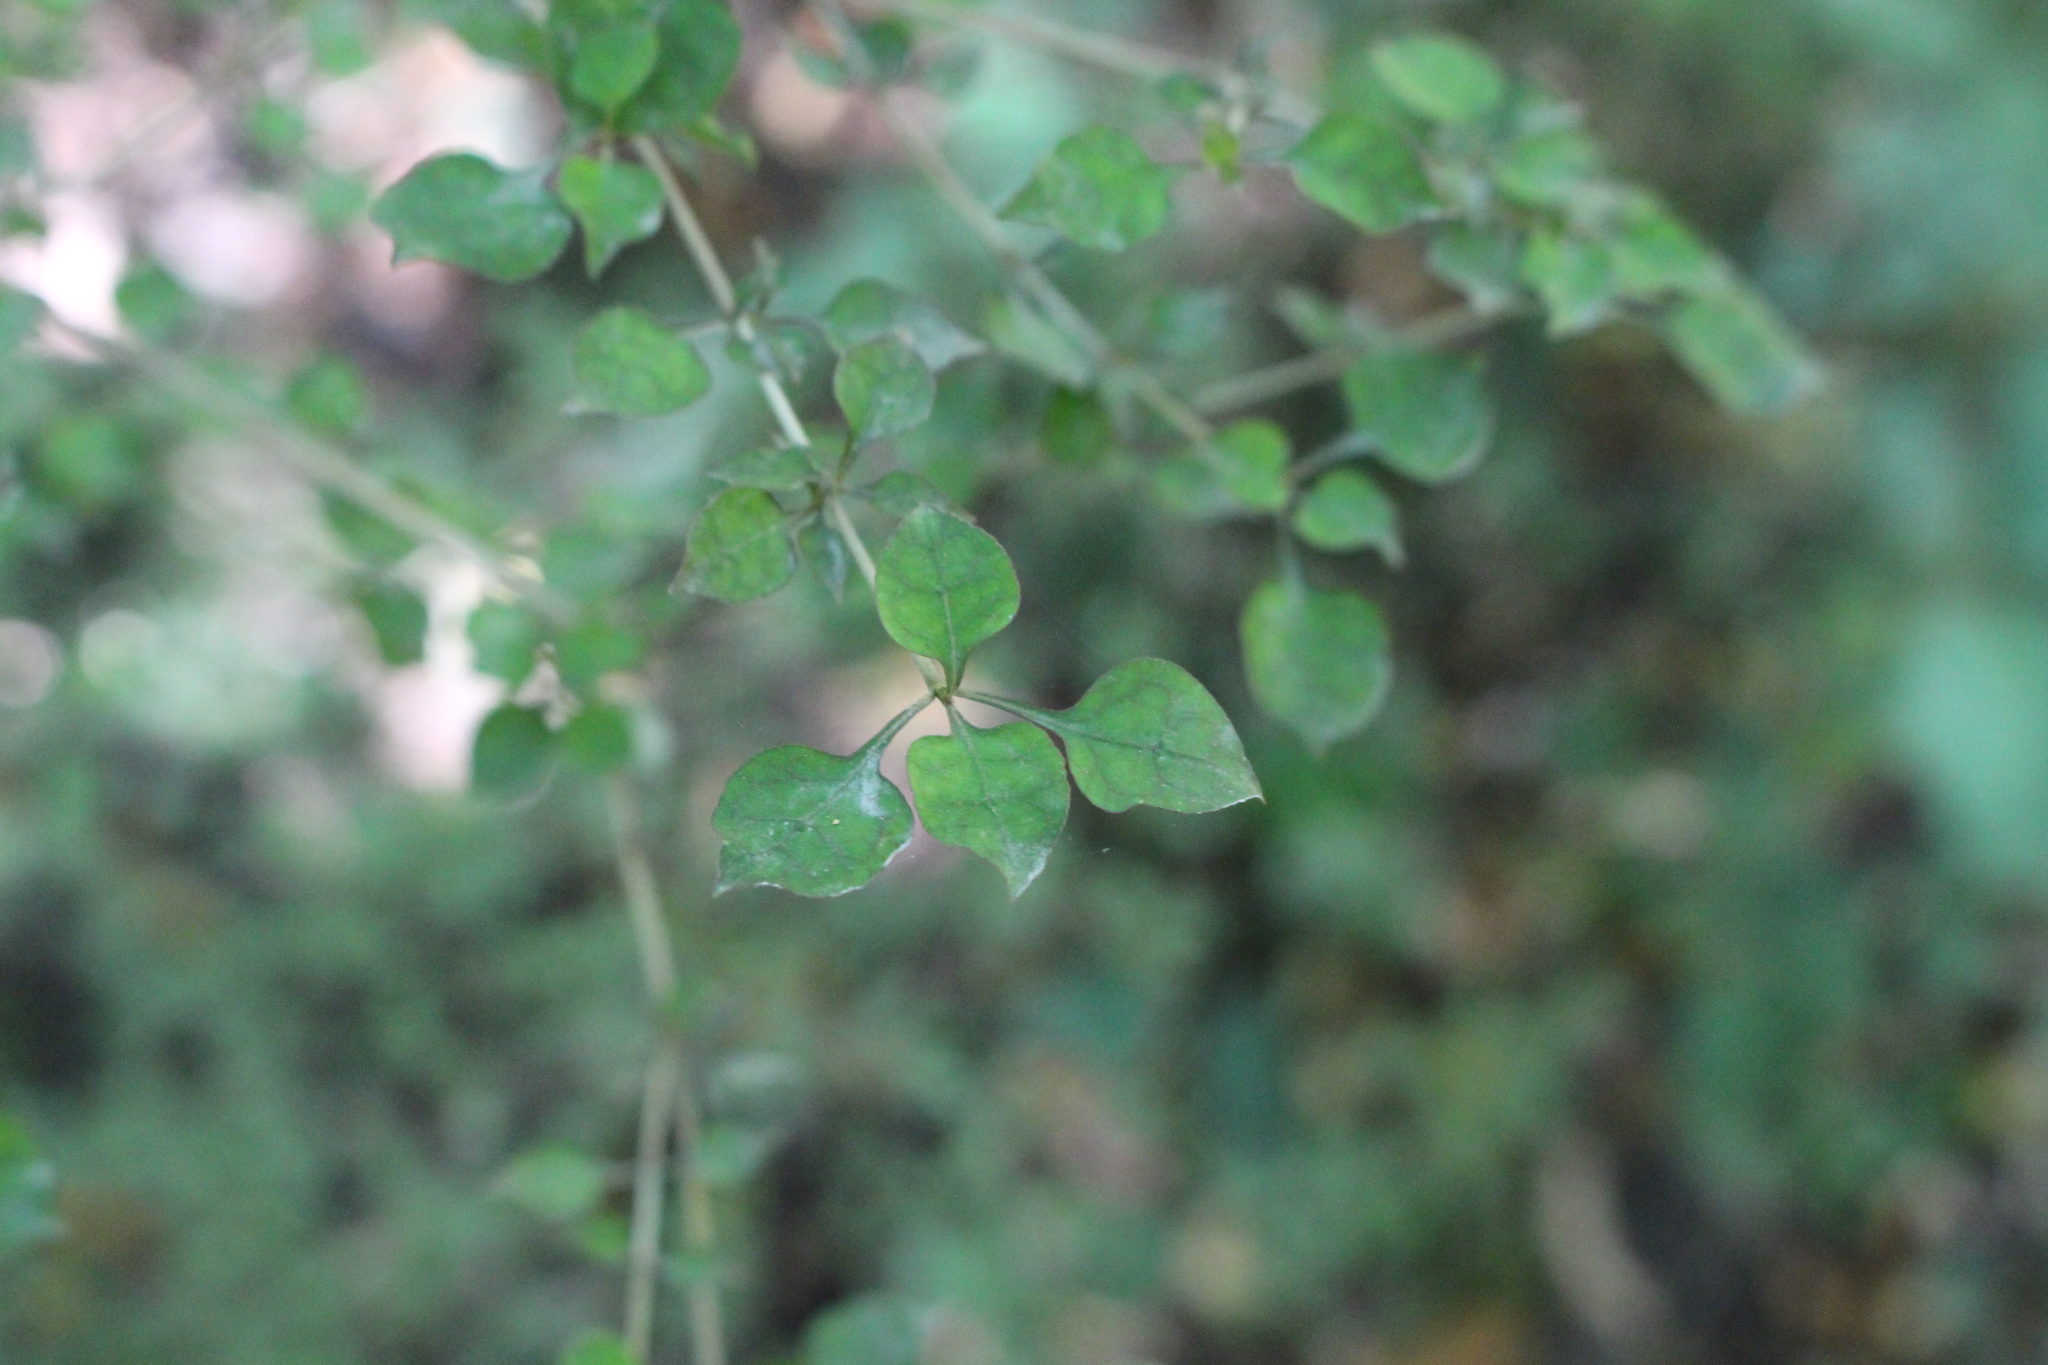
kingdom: Plantae
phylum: Tracheophyta
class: Magnoliopsida
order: Gentianales
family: Rubiaceae
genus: Coprosma
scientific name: Coprosma areolata
